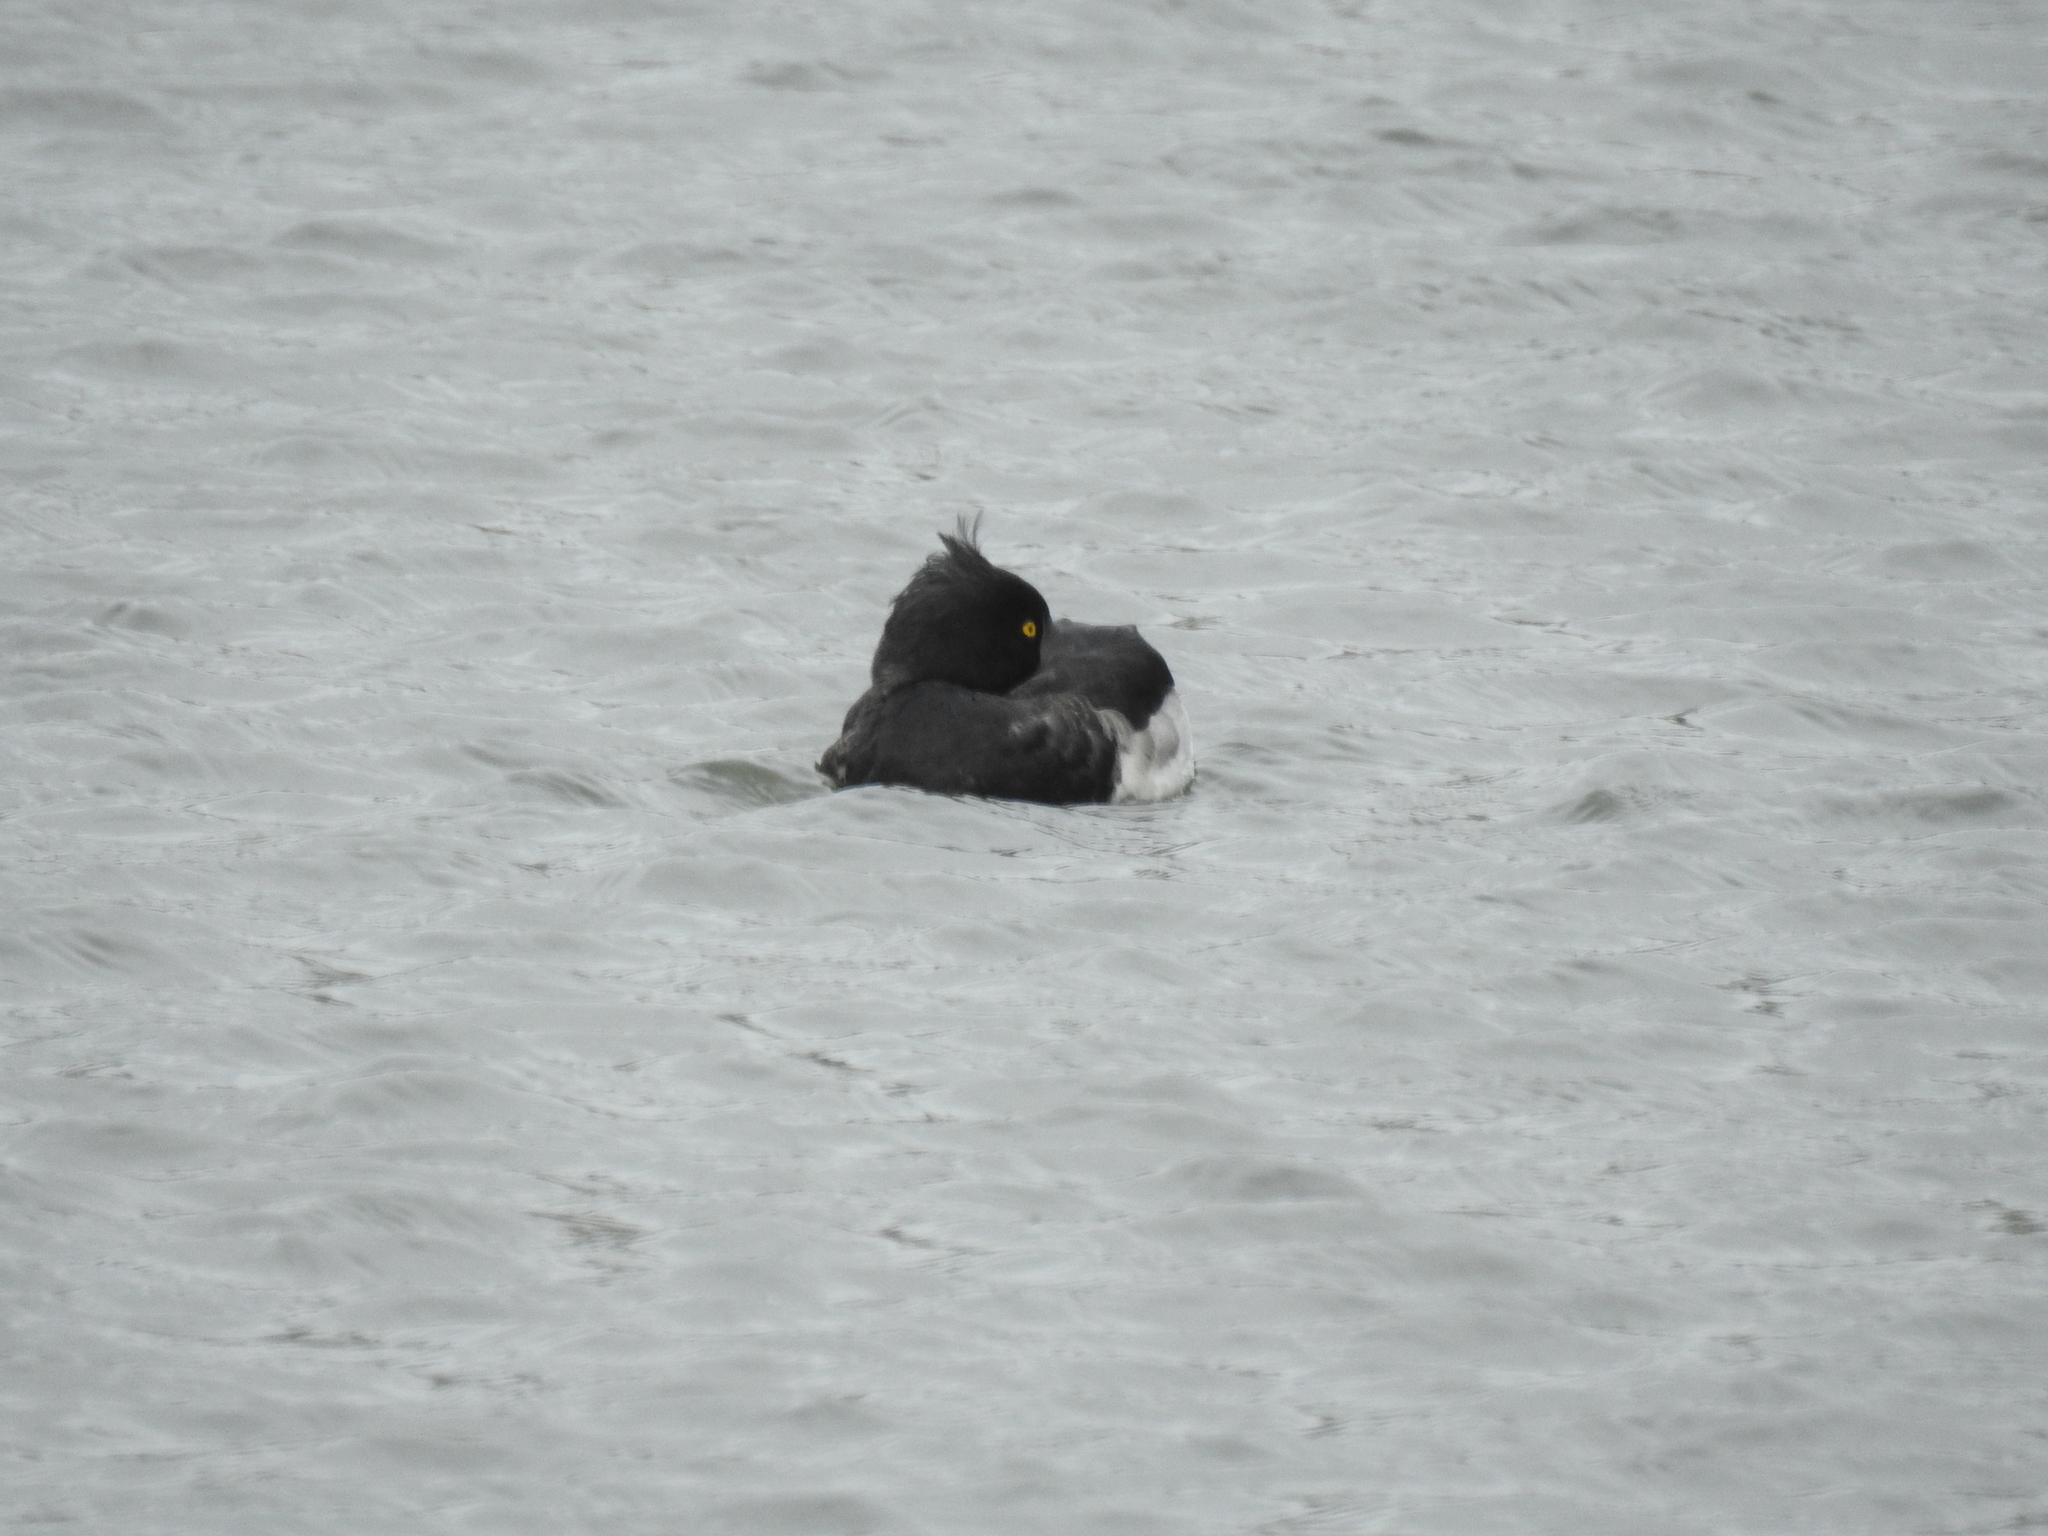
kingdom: Animalia
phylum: Chordata
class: Aves
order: Anseriformes
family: Anatidae
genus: Aythya
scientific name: Aythya fuligula
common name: Tufted duck
